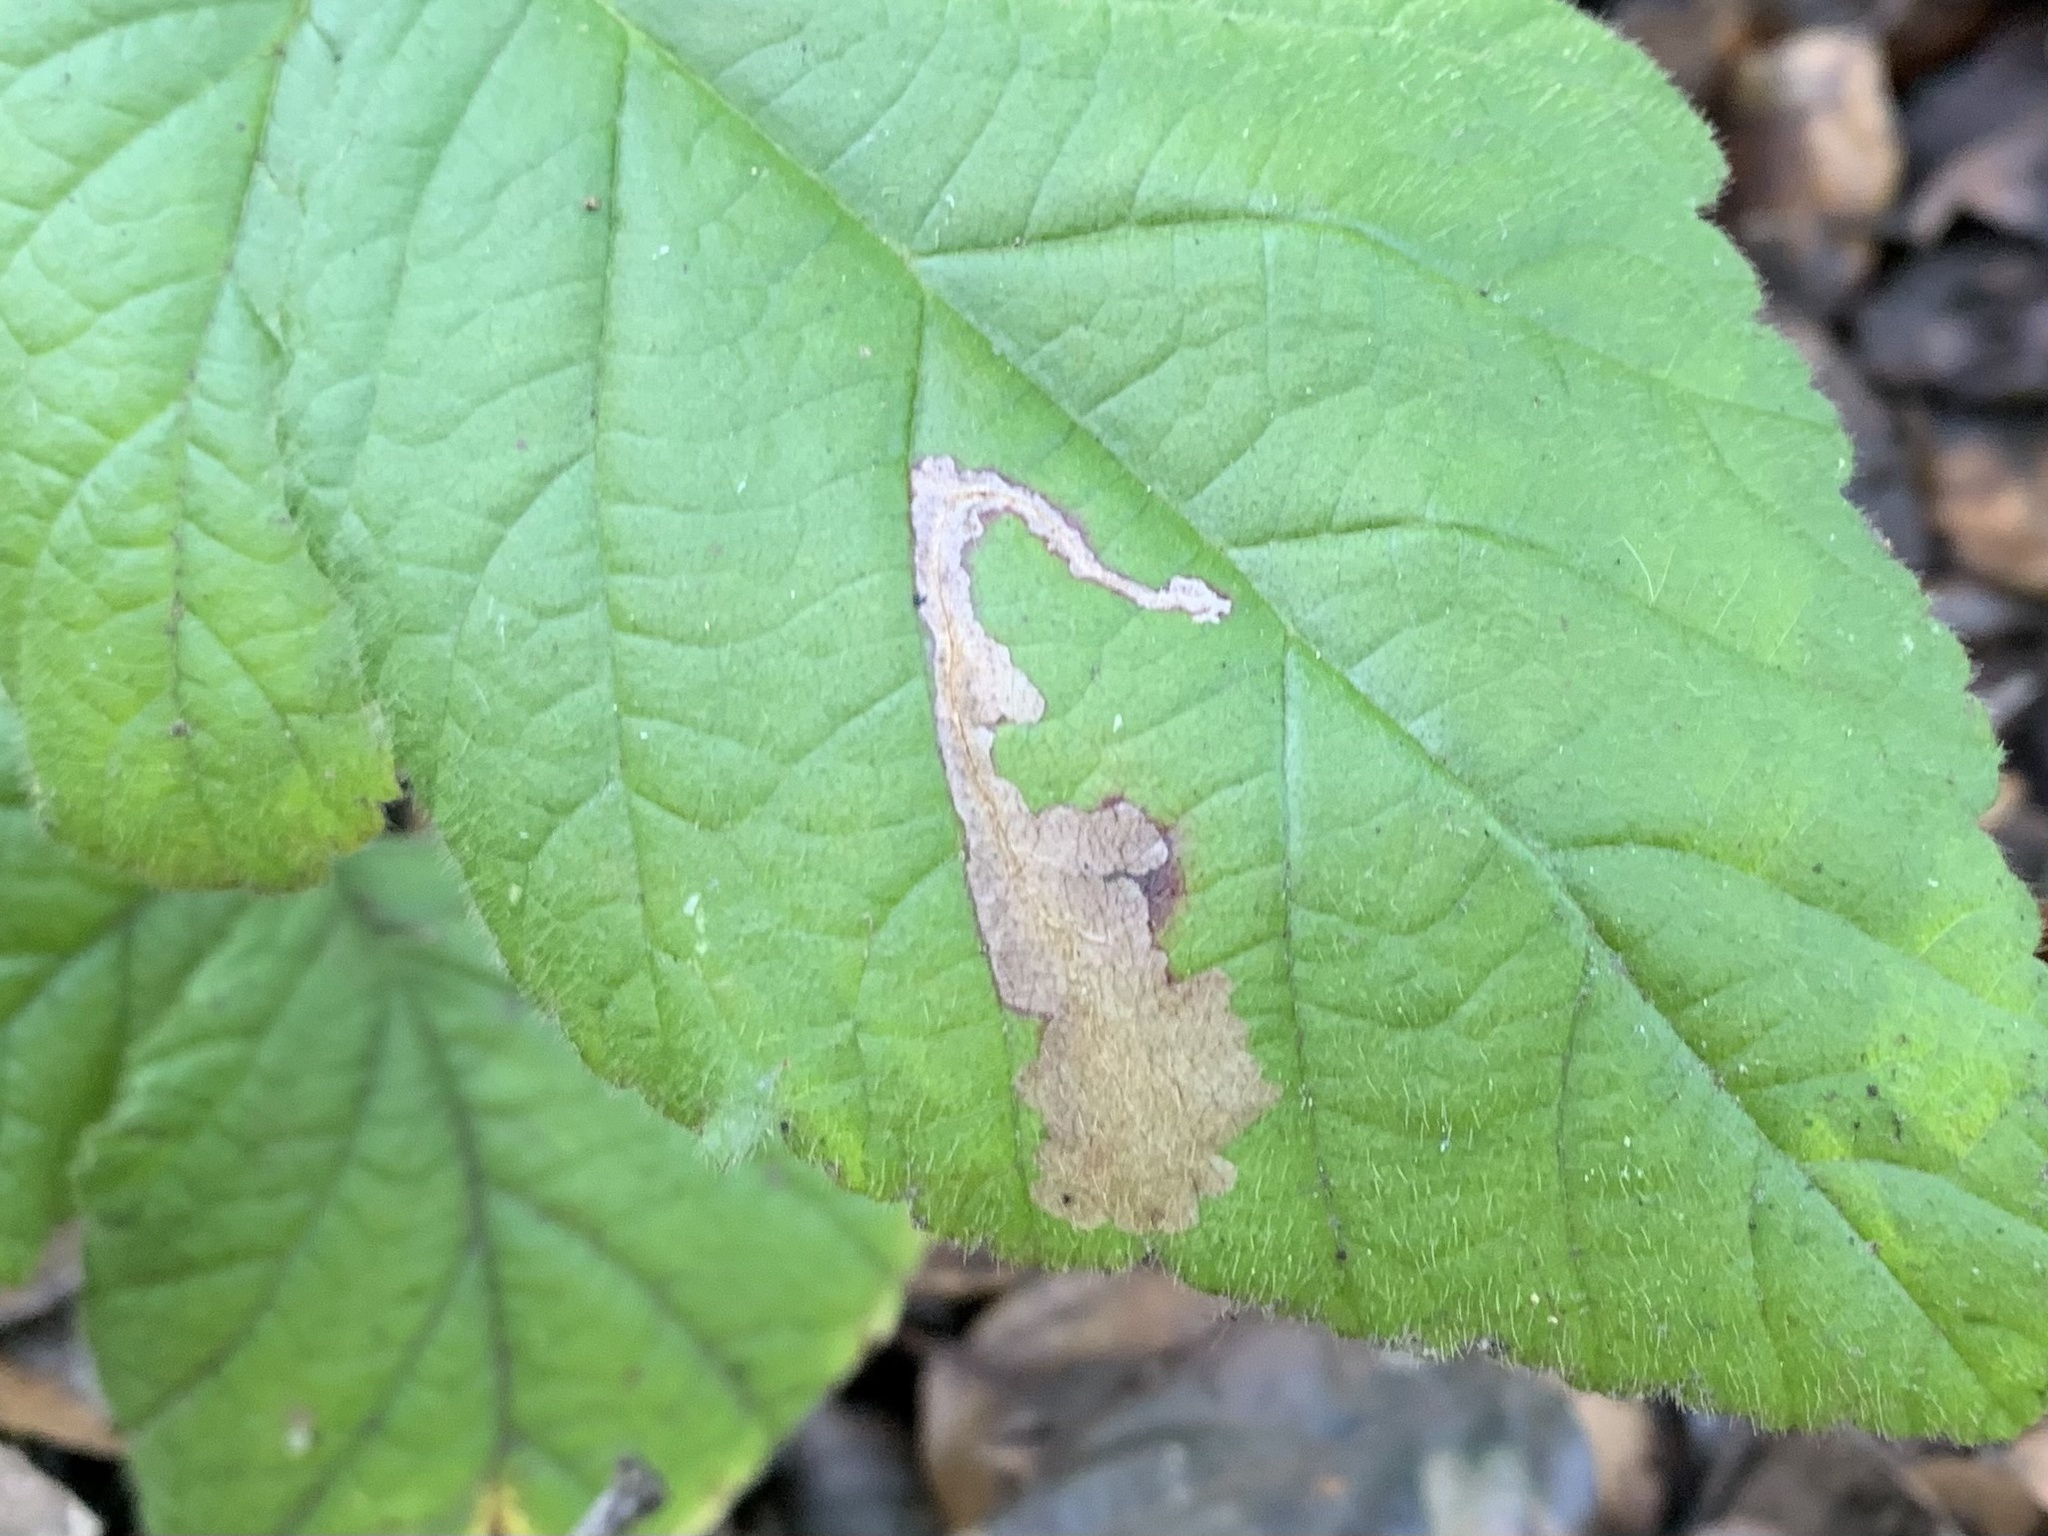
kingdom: Animalia
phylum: Arthropoda
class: Insecta
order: Lepidoptera
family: Tischeriidae
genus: Coptotriche
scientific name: Coptotriche splendida
